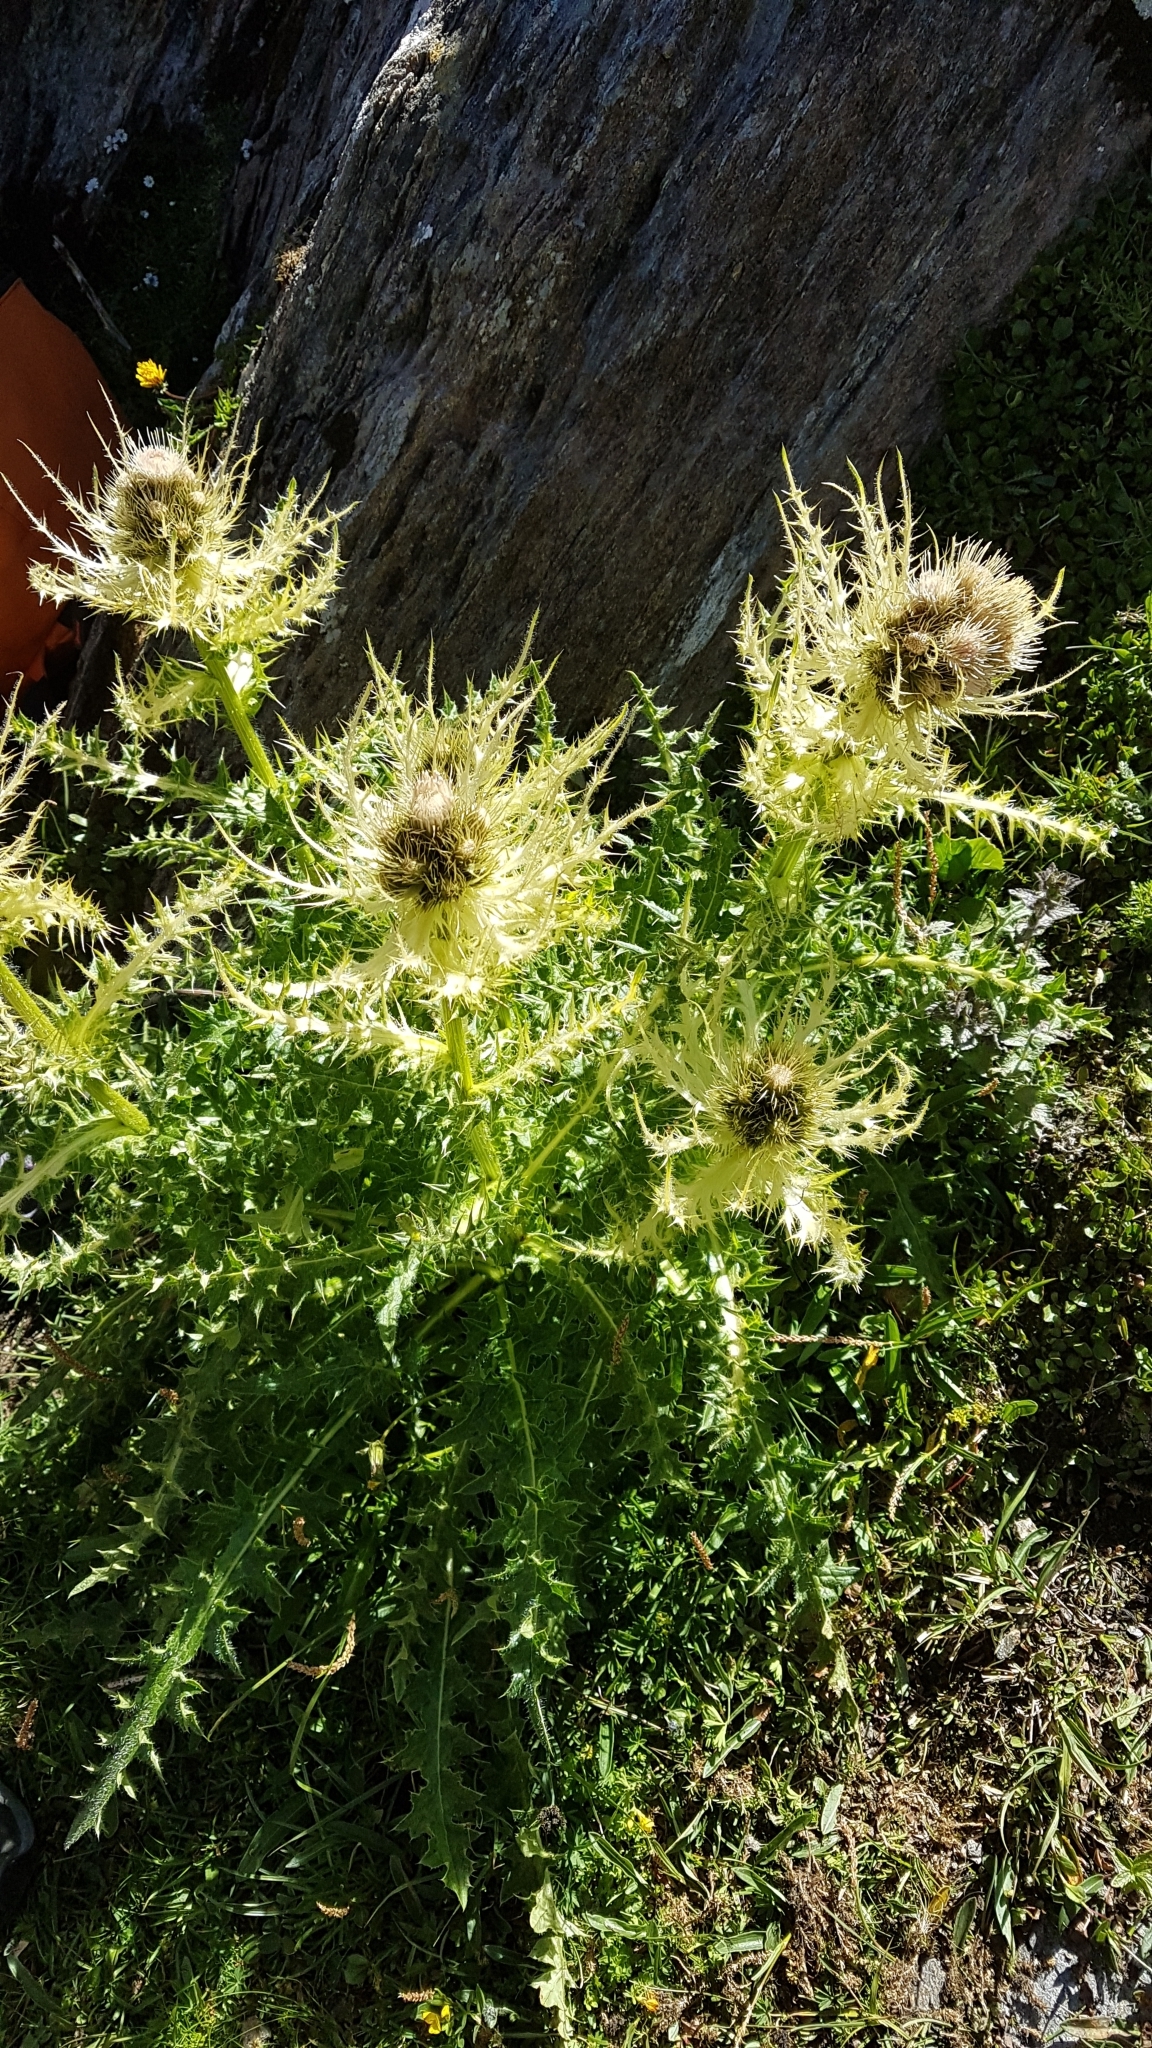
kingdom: Plantae
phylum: Tracheophyta
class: Magnoliopsida
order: Asterales
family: Asteraceae
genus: Cirsium
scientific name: Cirsium spinosissimum
